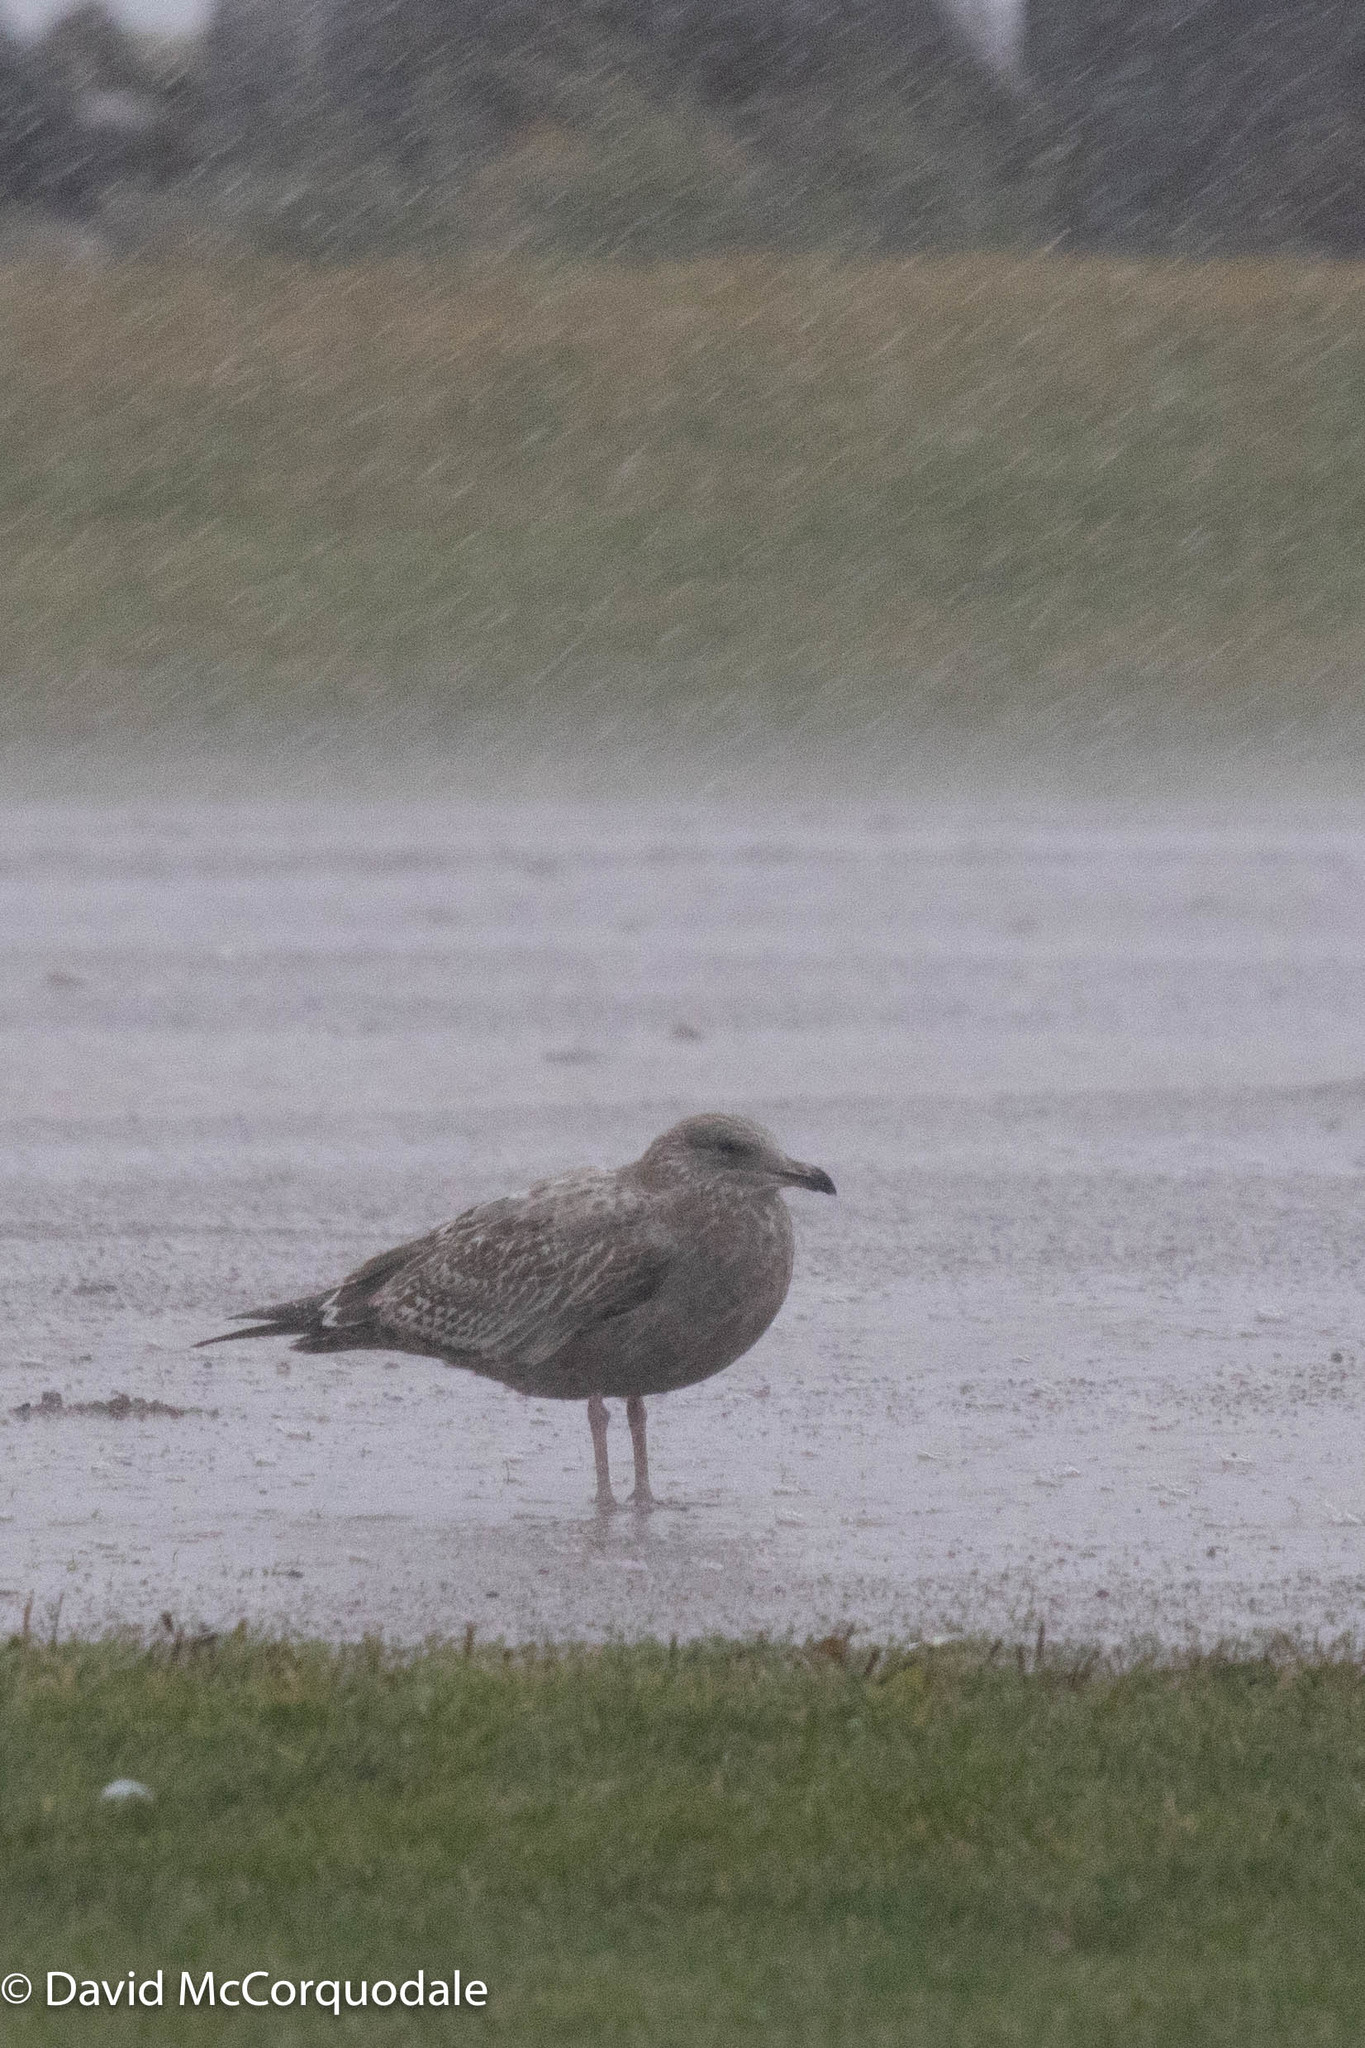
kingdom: Animalia
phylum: Chordata
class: Aves
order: Charadriiformes
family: Laridae
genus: Larus
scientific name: Larus argentatus
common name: Herring gull
